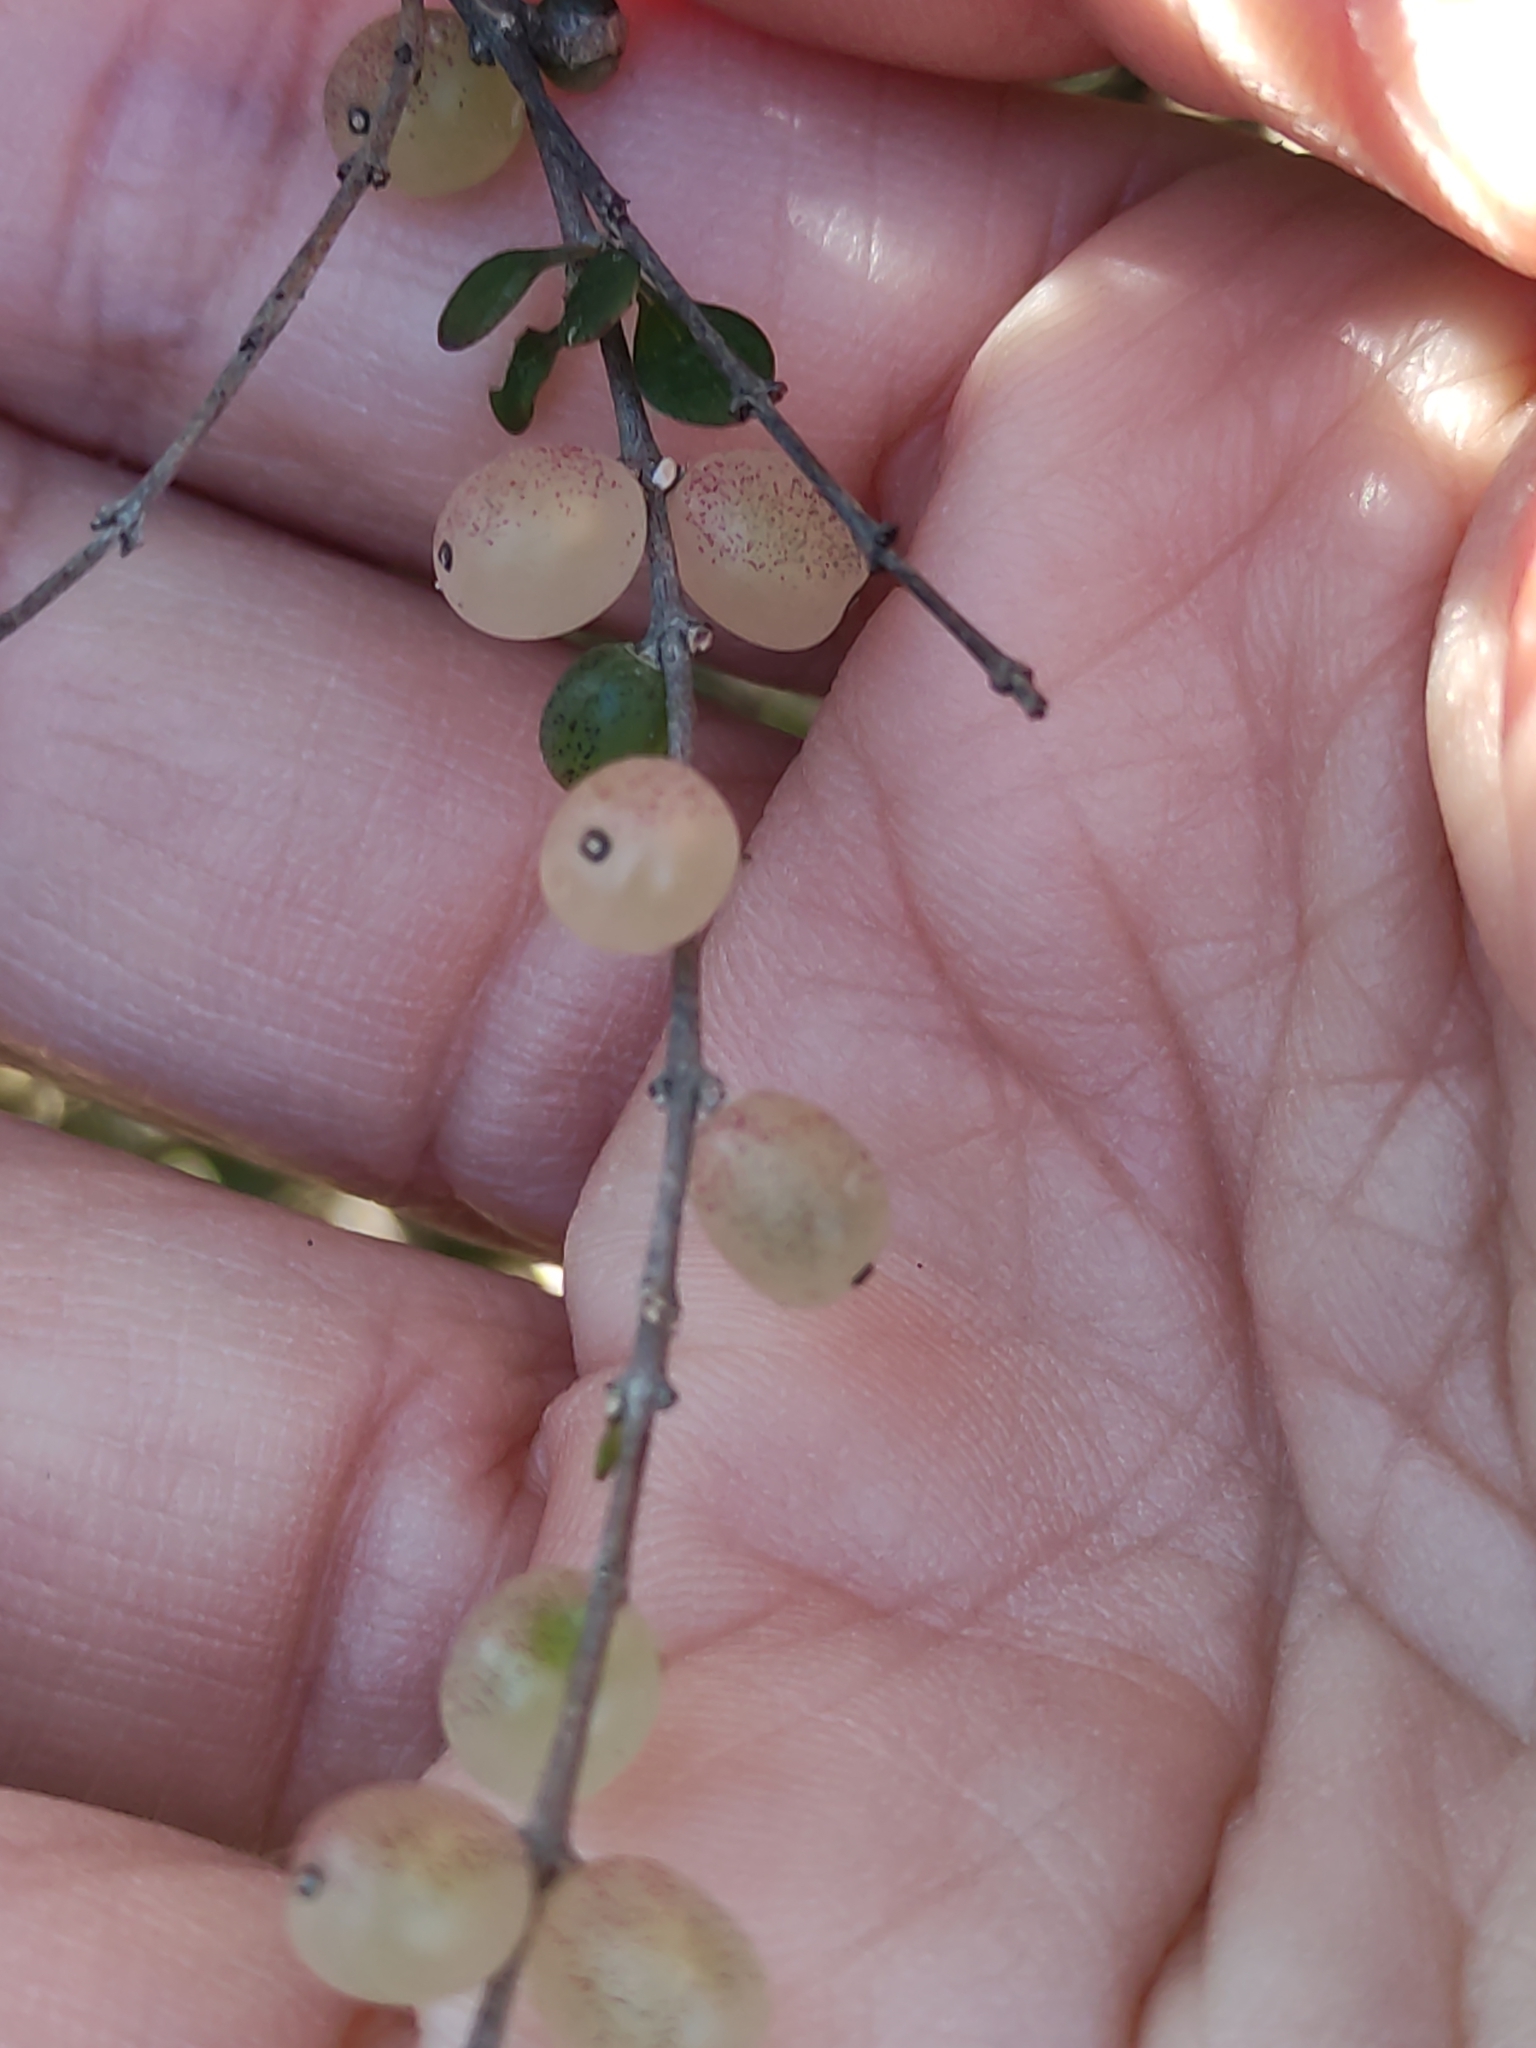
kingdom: Plantae
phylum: Tracheophyta
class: Magnoliopsida
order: Gentianales
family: Rubiaceae
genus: Coprosma
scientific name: Coprosma crassifolia
